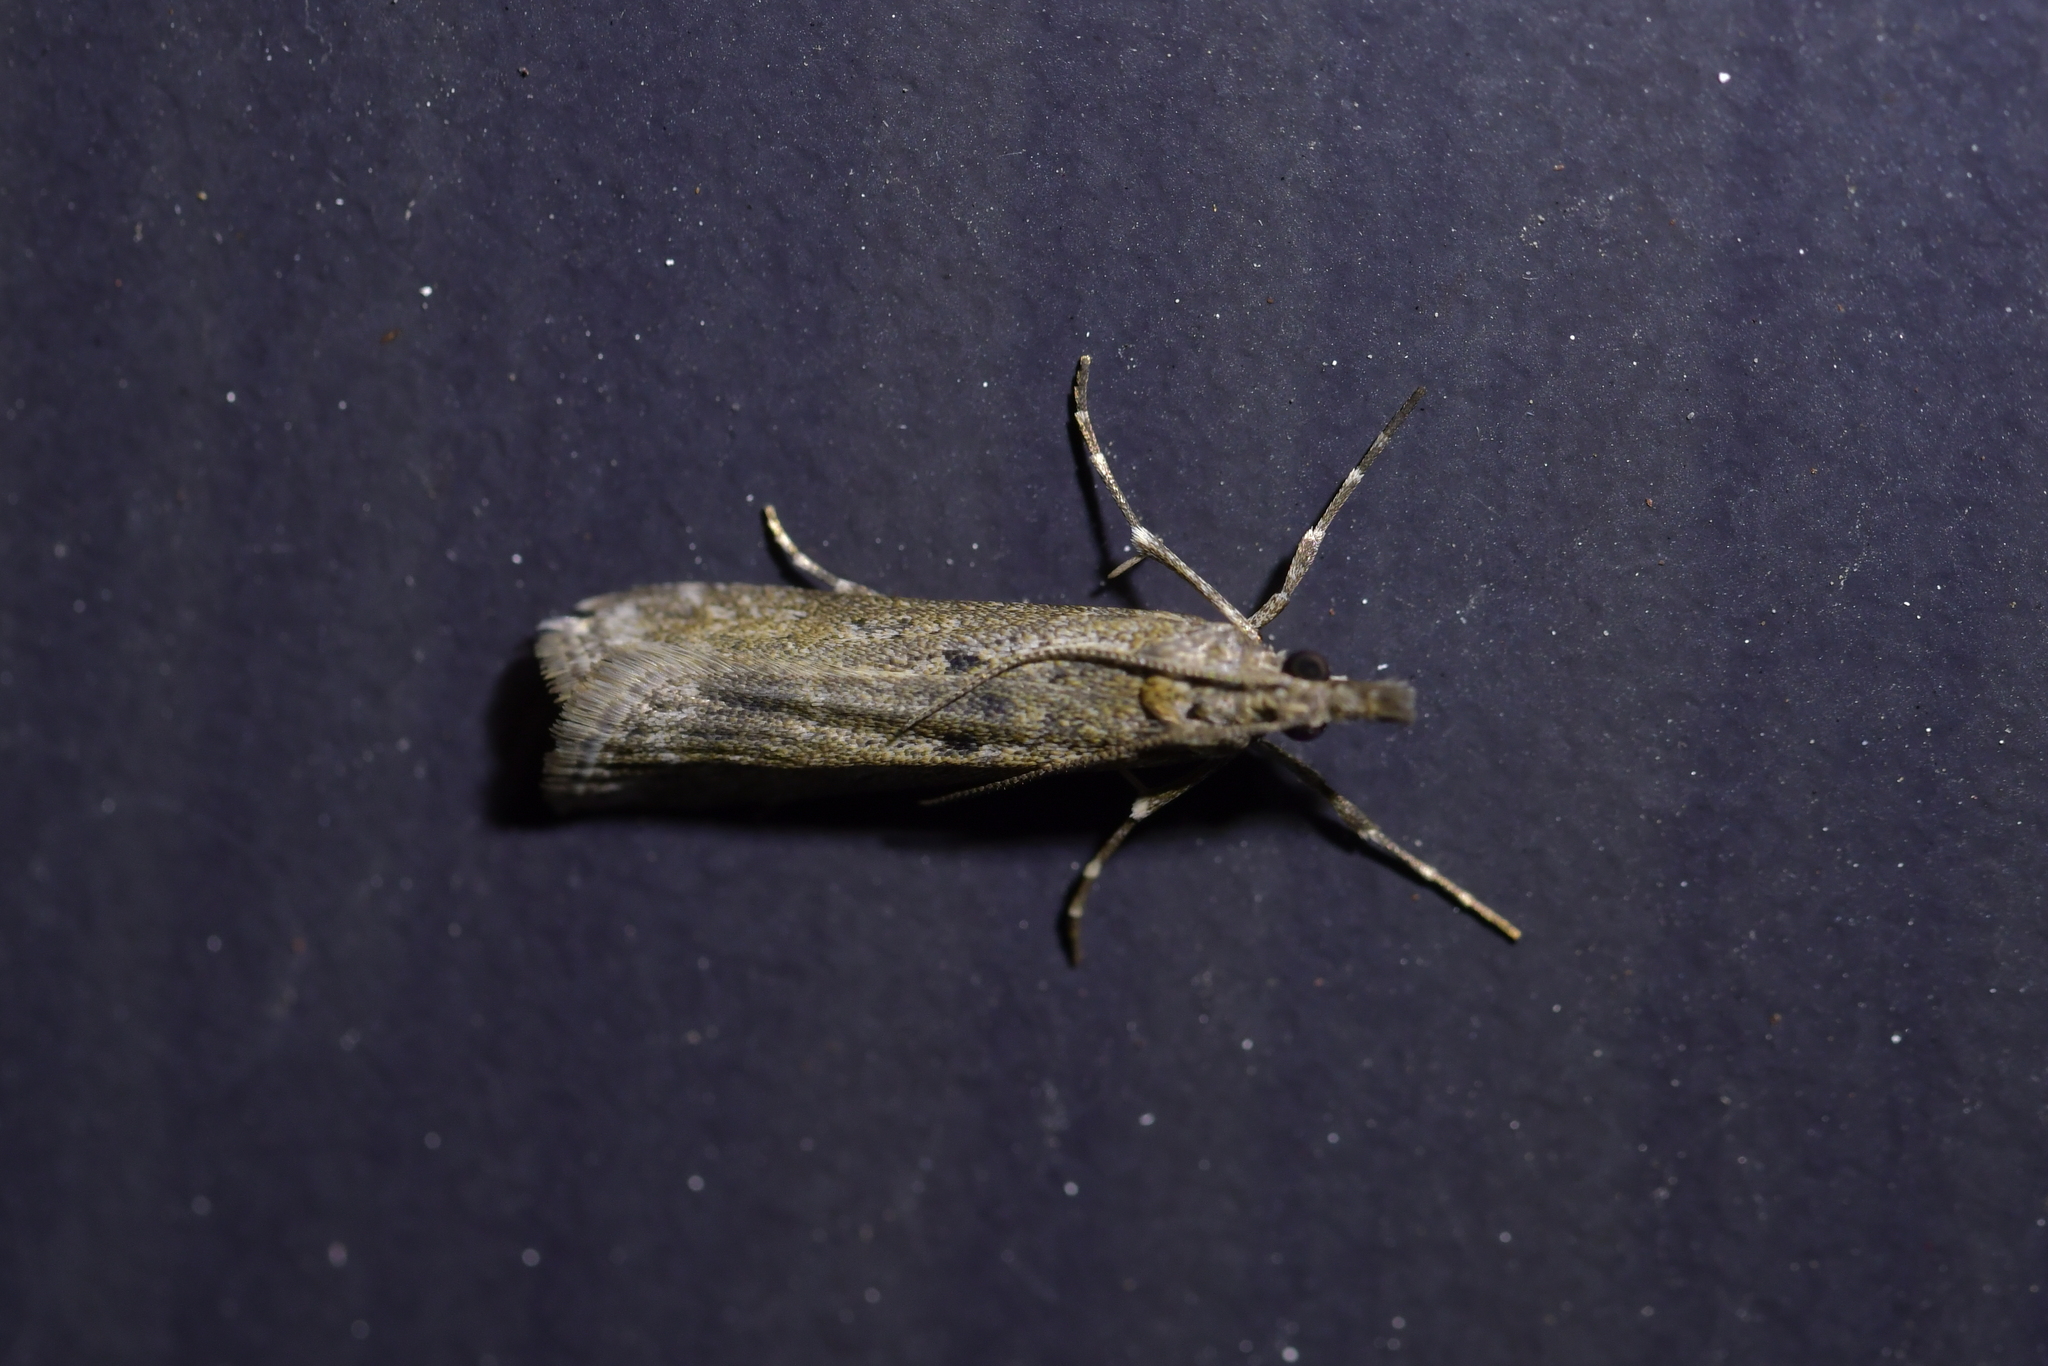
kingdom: Animalia
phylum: Arthropoda
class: Insecta
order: Lepidoptera
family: Crambidae
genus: Eudonia
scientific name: Eudonia leptalea
